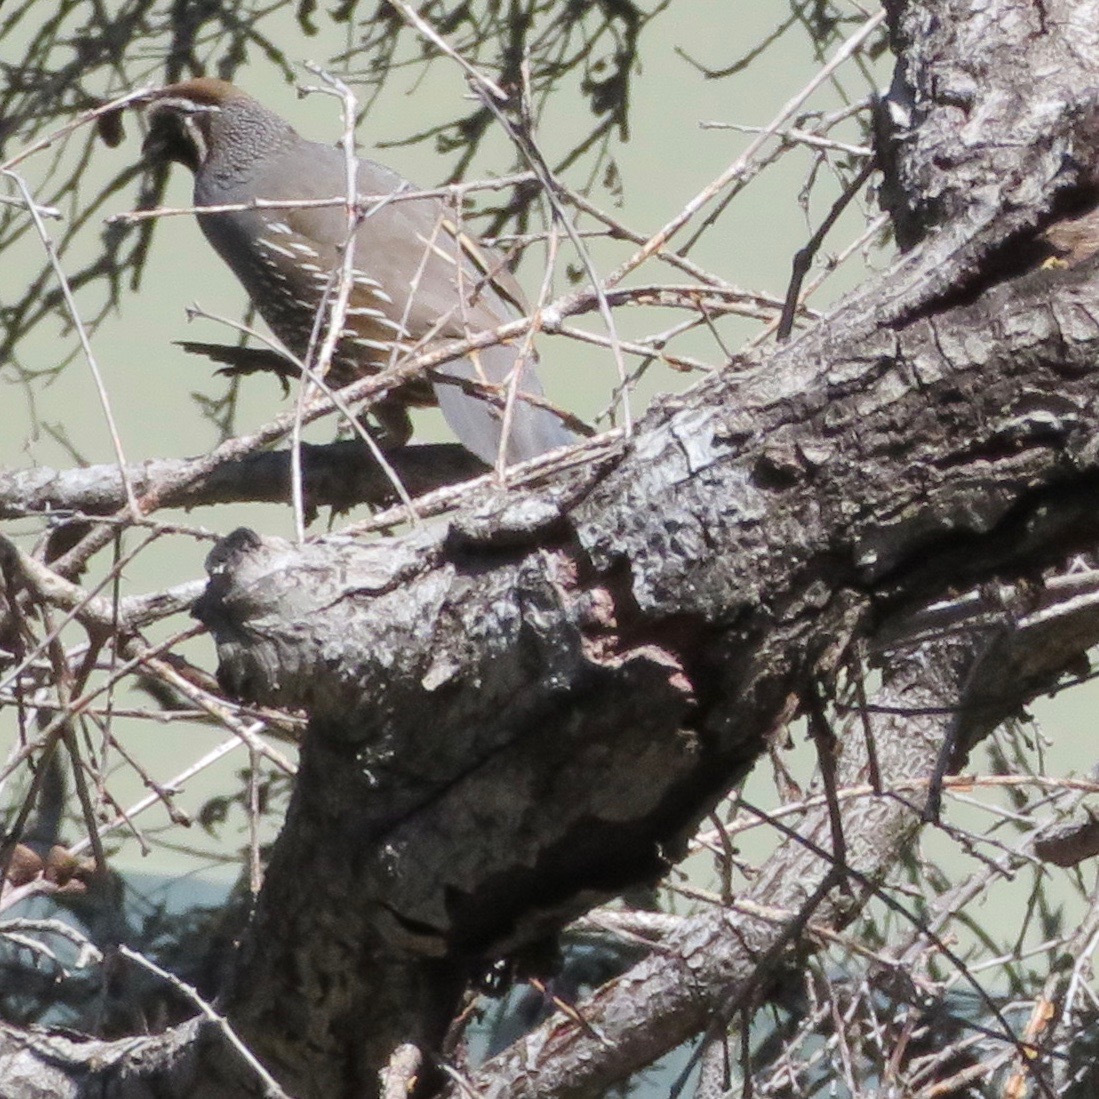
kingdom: Animalia
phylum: Chordata
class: Aves
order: Galliformes
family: Odontophoridae
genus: Callipepla
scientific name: Callipepla californica
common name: California quail
